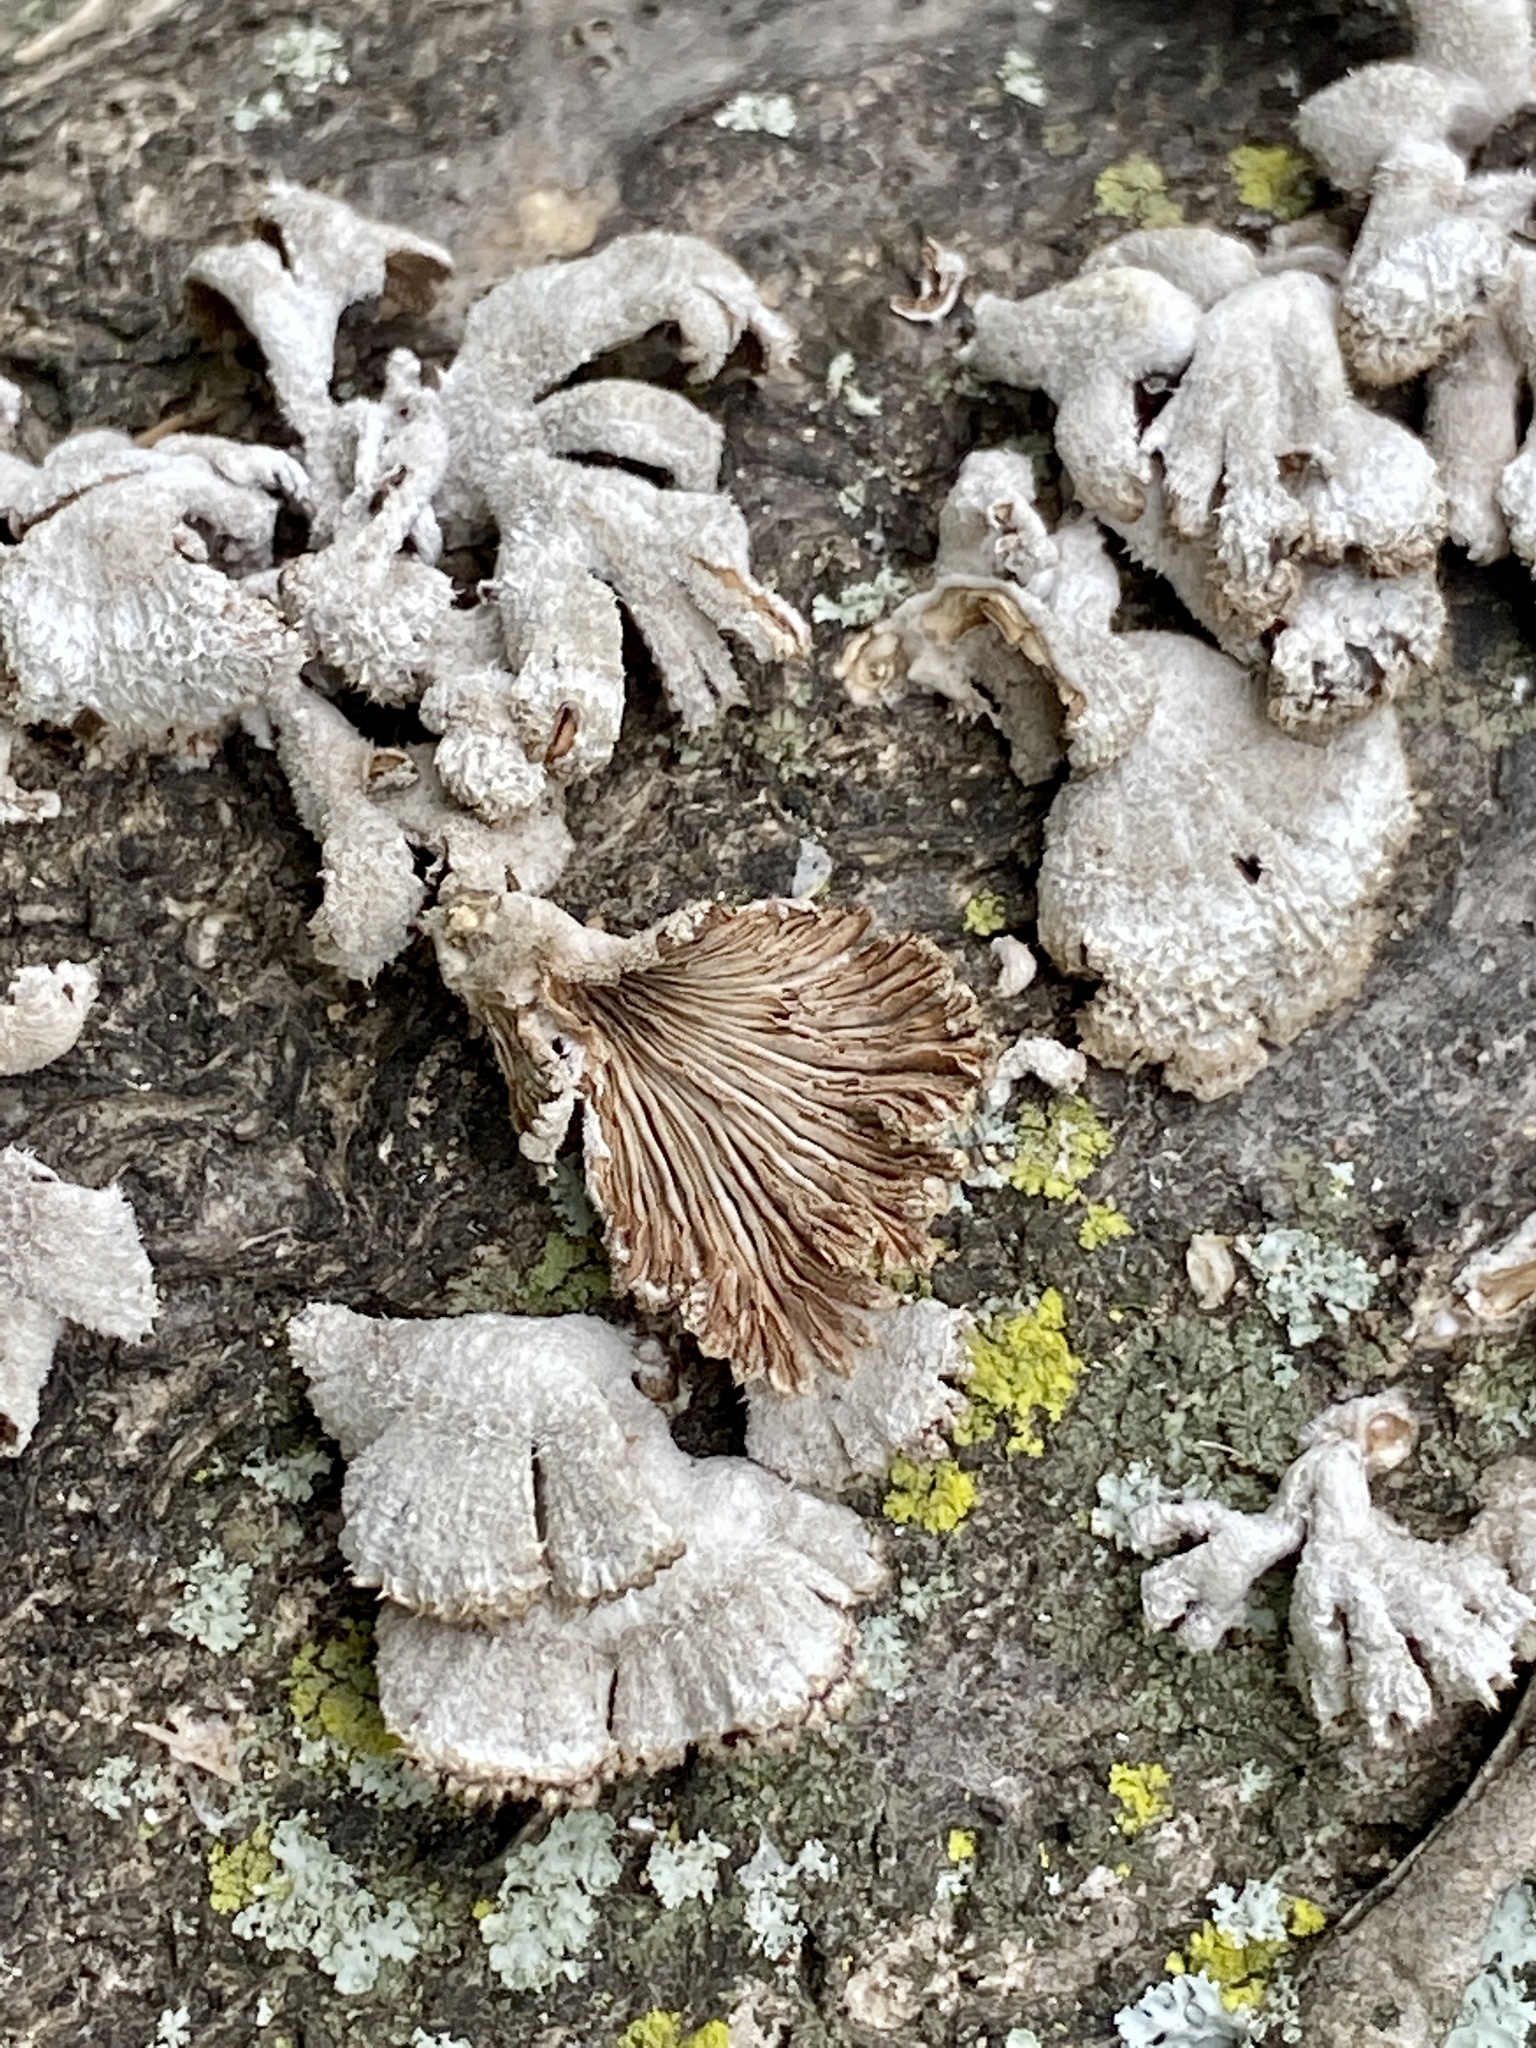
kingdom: Fungi
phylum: Basidiomycota
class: Agaricomycetes
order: Agaricales
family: Schizophyllaceae
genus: Schizophyllum
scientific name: Schizophyllum commune
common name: Common porecrust
